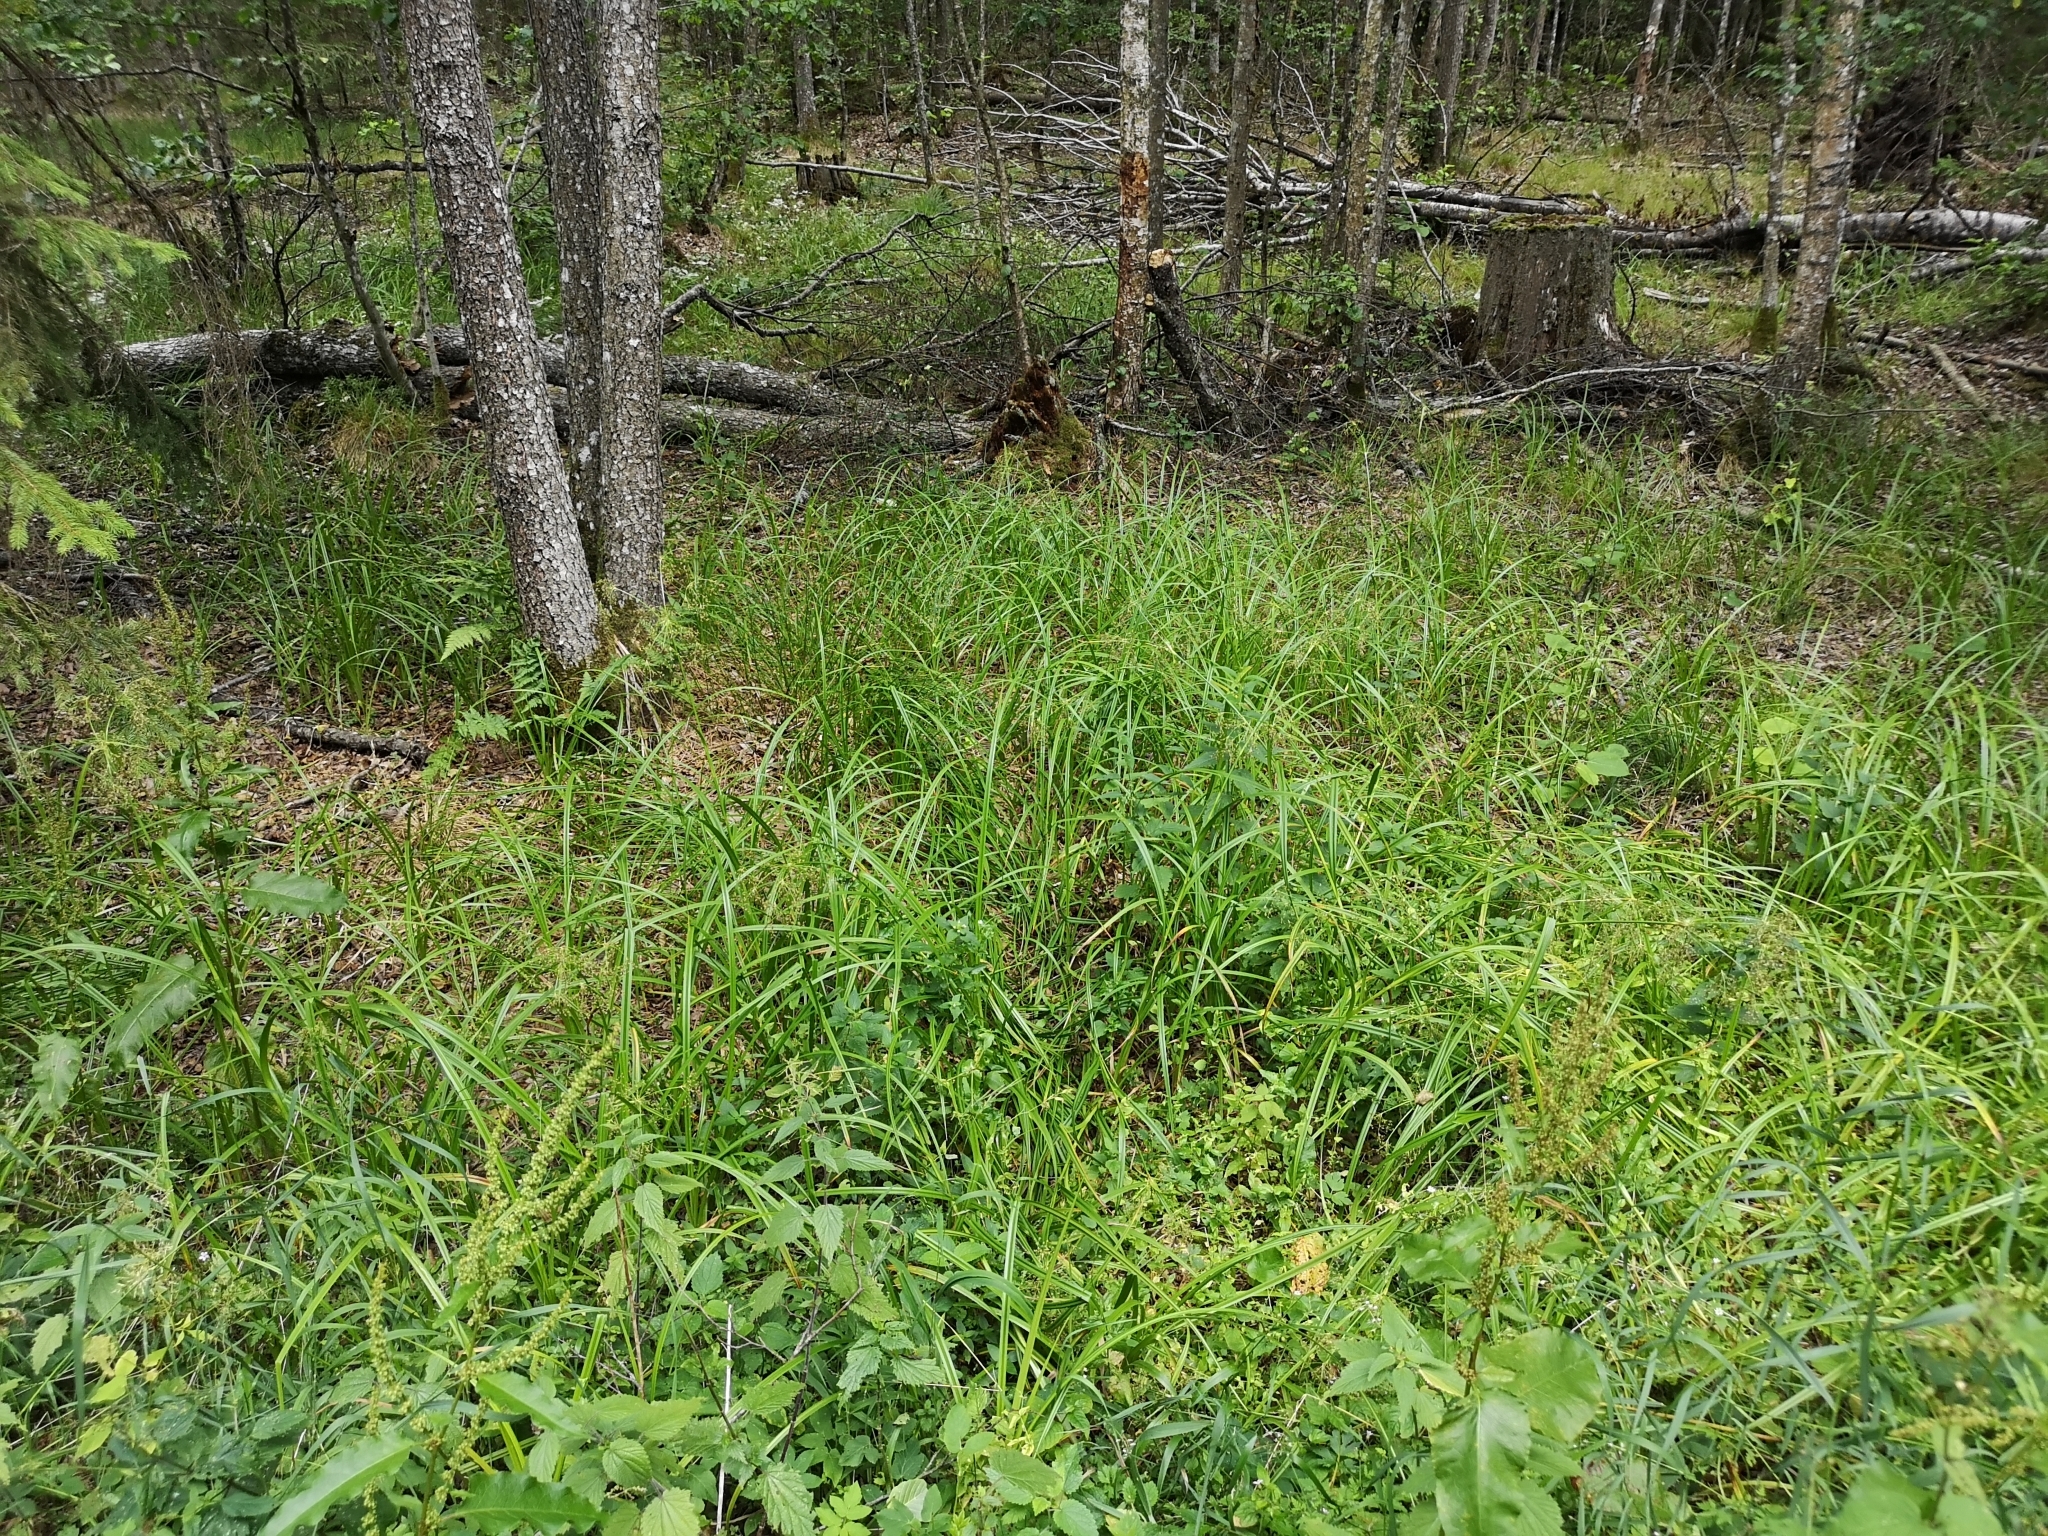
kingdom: Plantae
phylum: Tracheophyta
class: Liliopsida
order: Poales
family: Cyperaceae
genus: Scirpus
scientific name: Scirpus sylvaticus
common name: Wood club-rush
